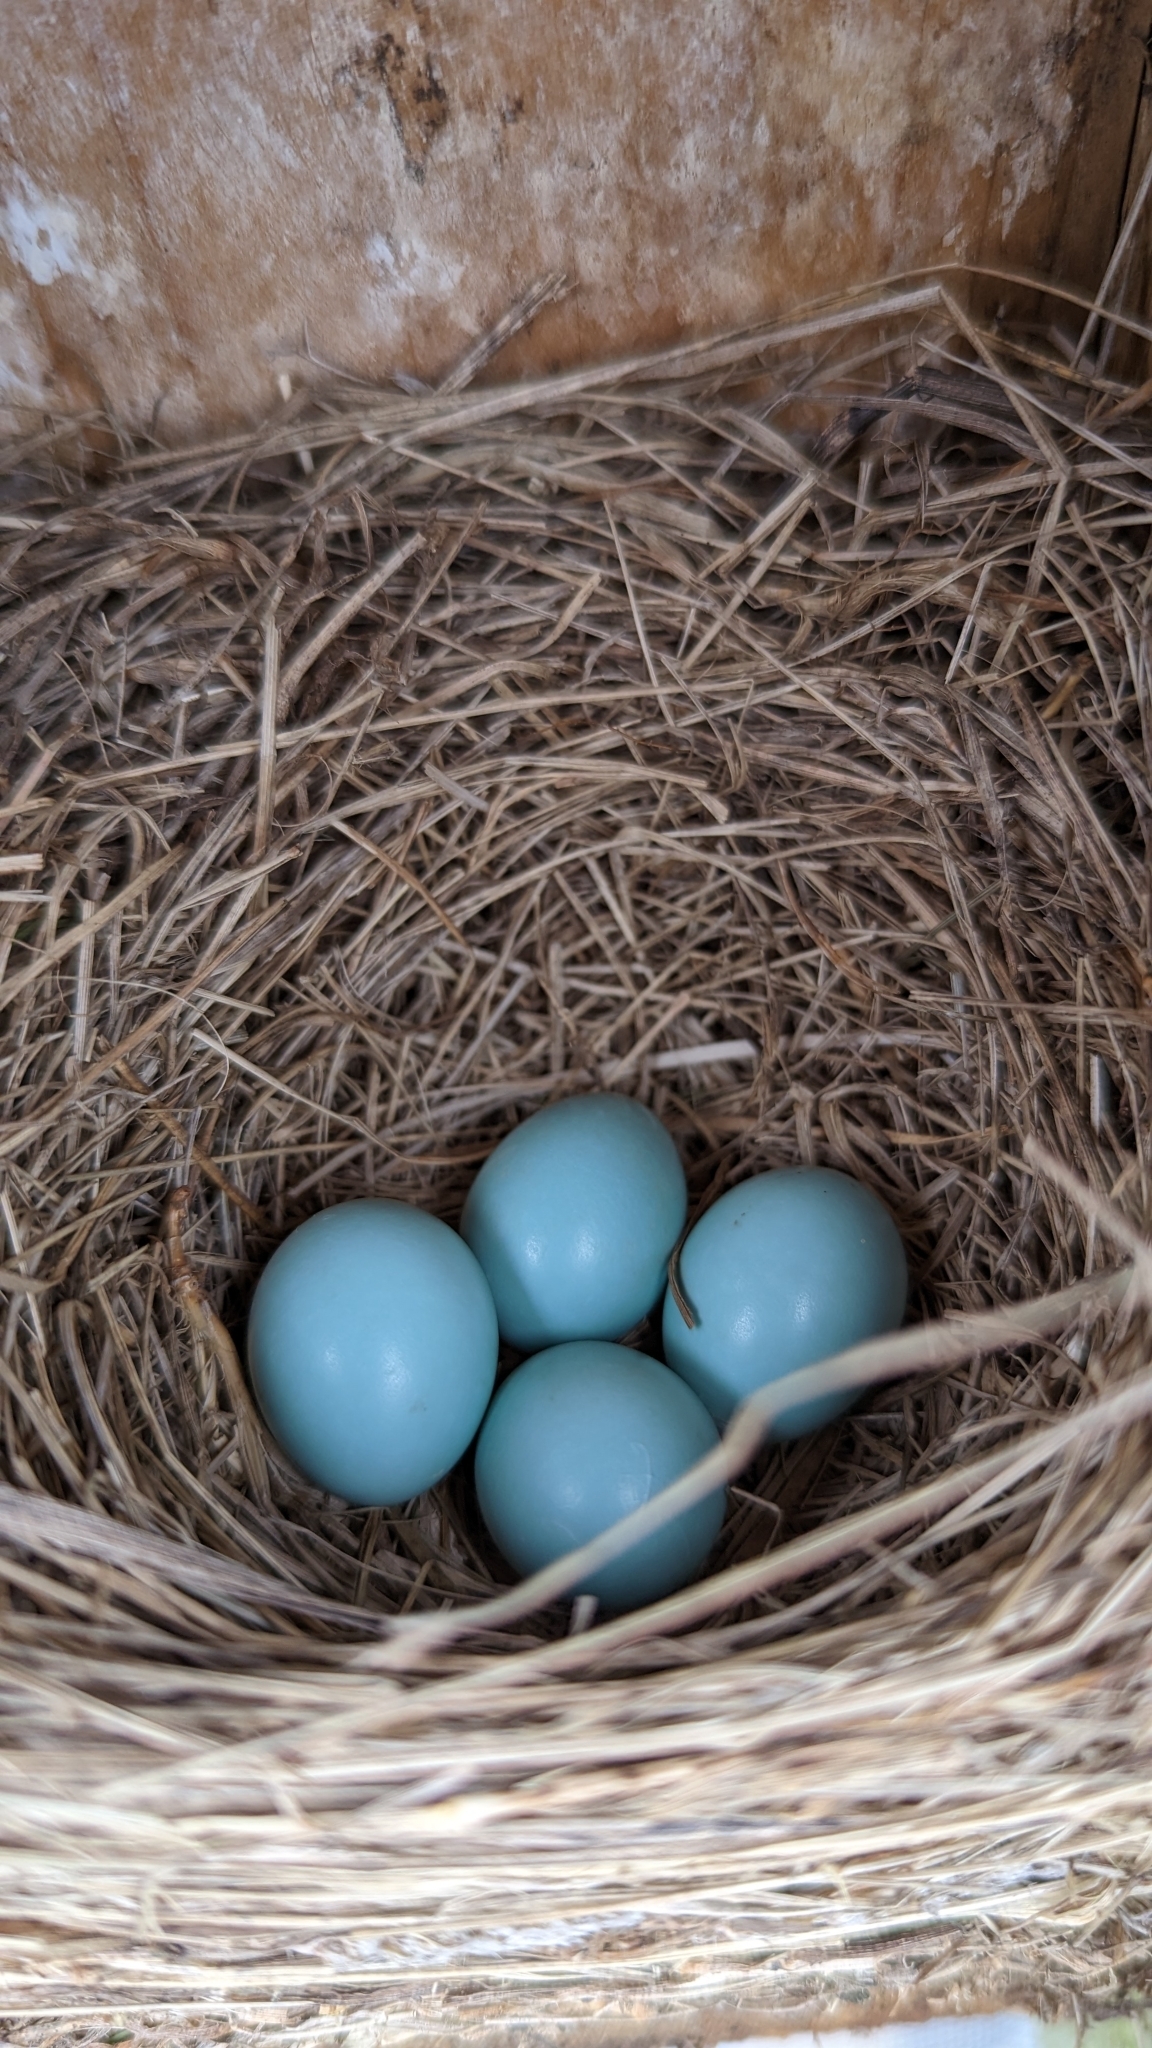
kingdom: Animalia
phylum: Chordata
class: Aves
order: Passeriformes
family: Turdidae
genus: Sialia
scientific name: Sialia sialis
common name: Eastern bluebird
